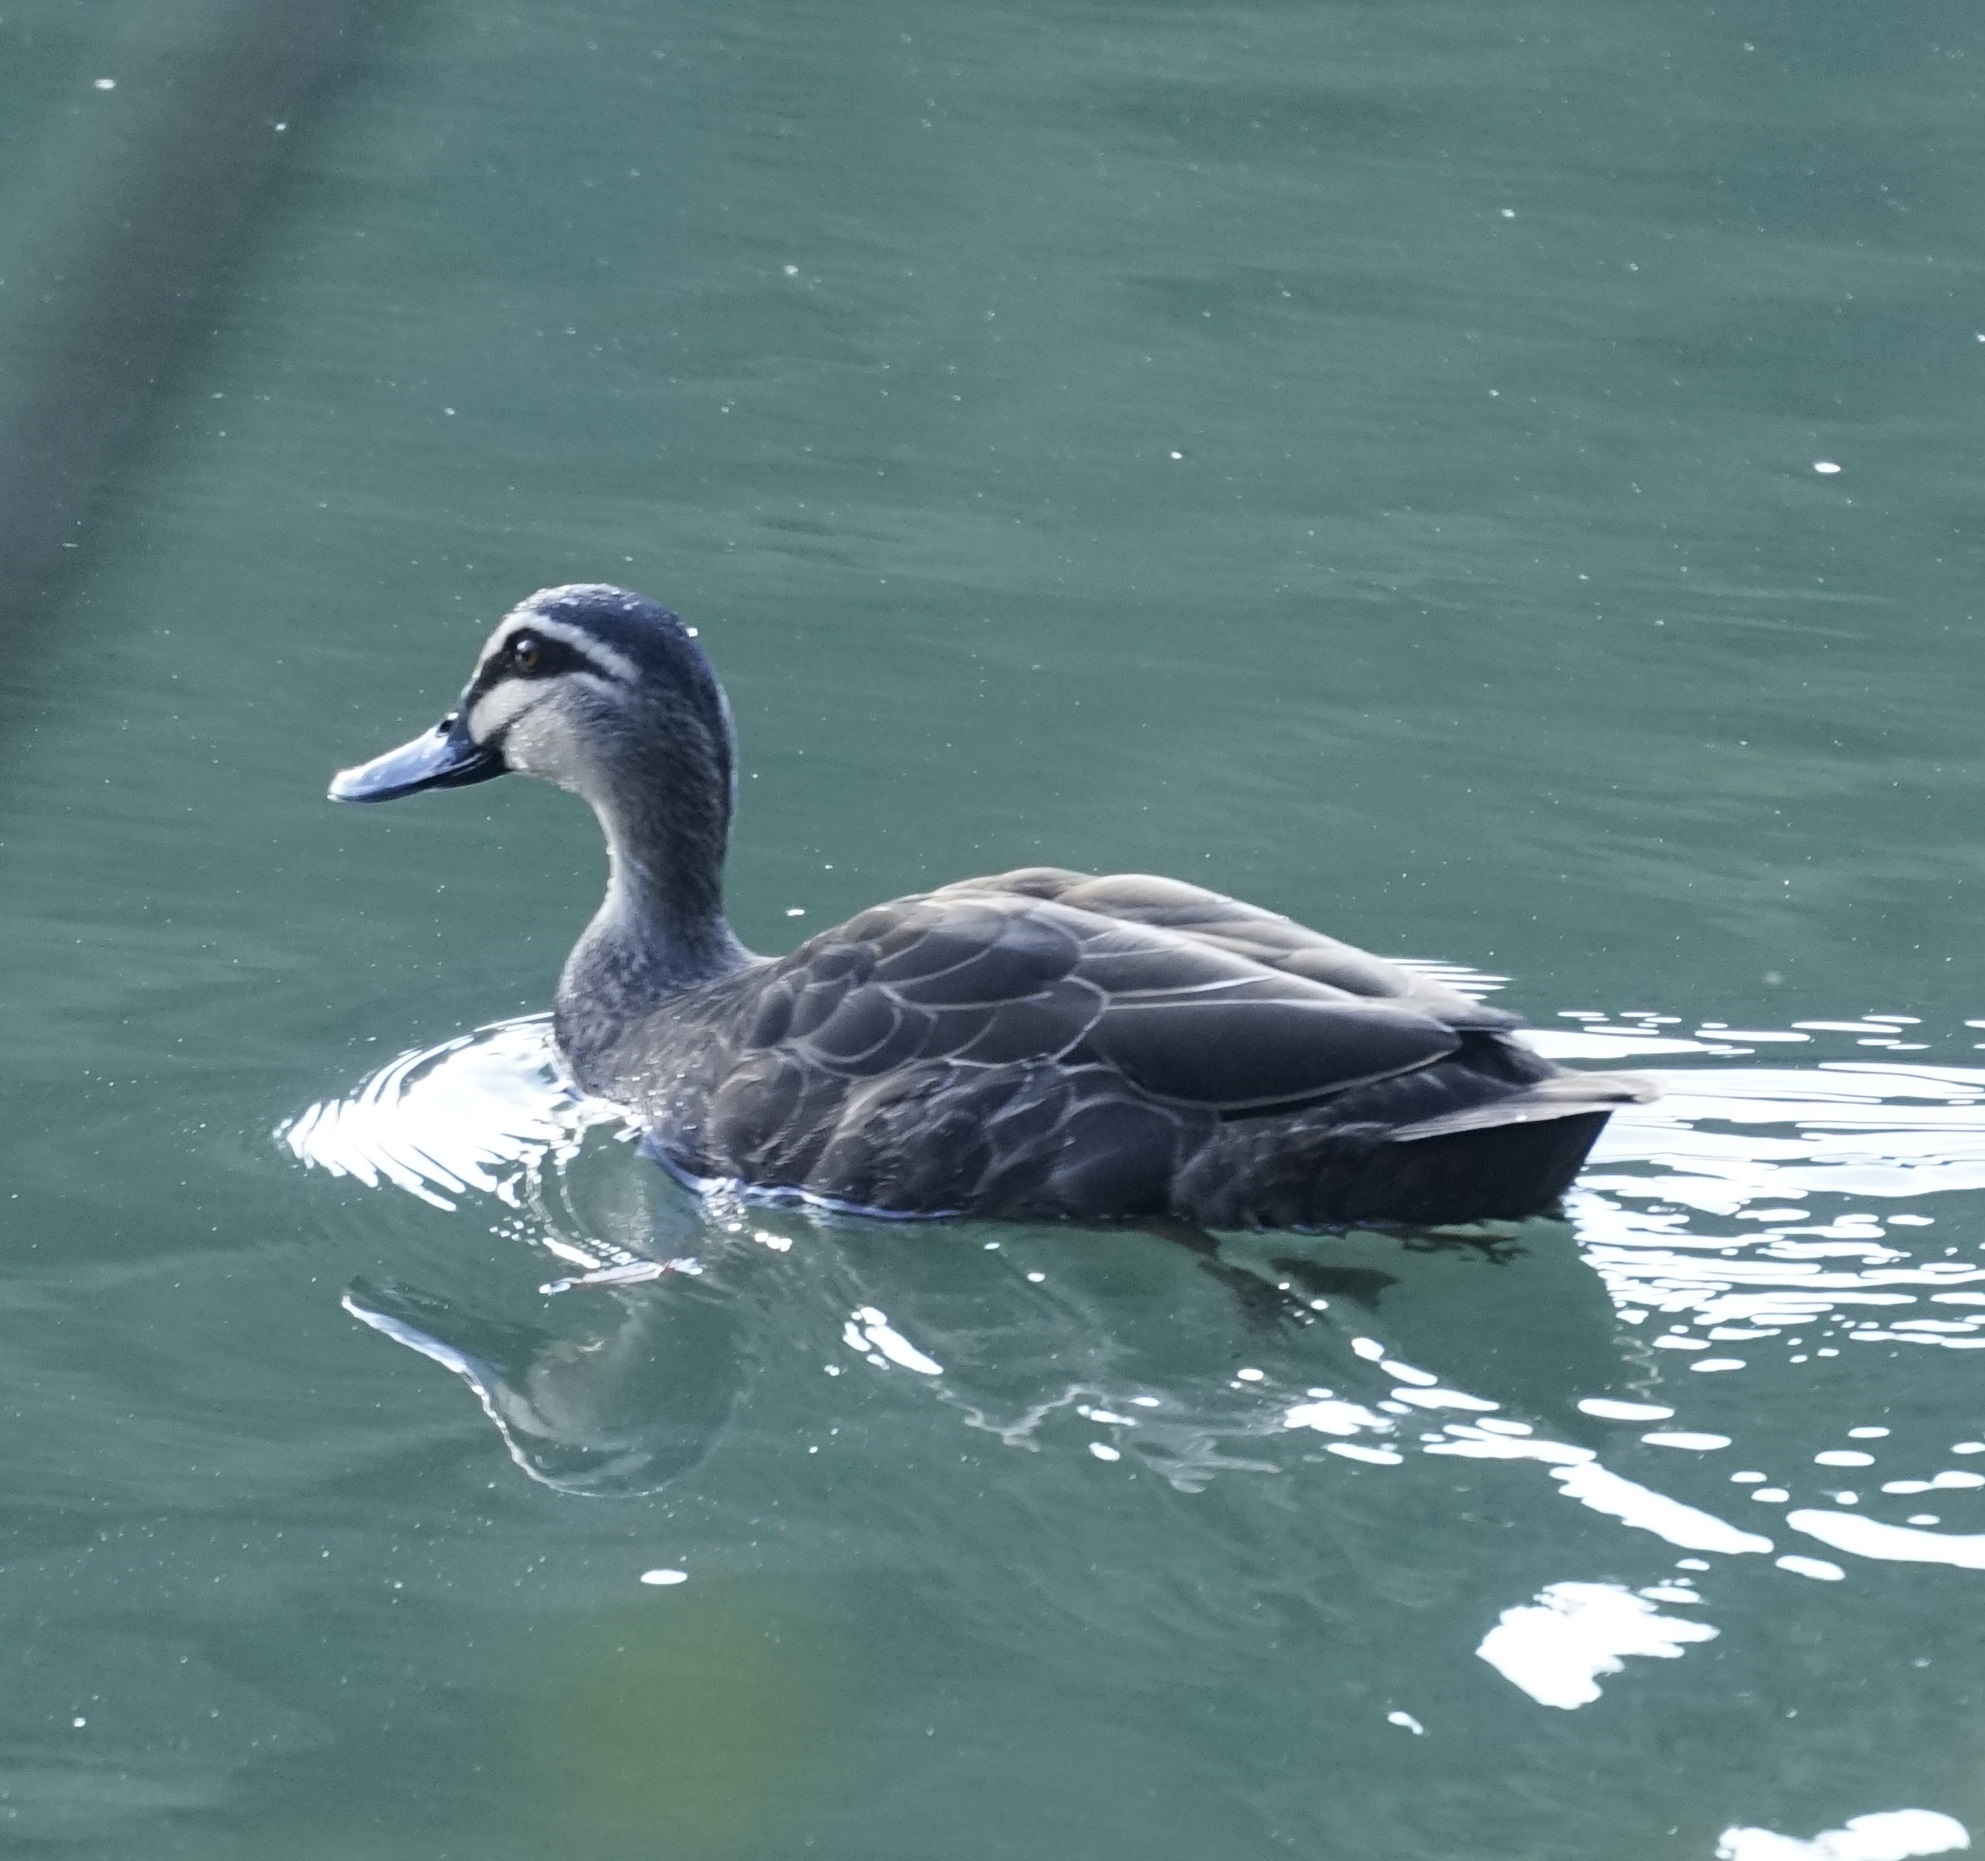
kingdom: Animalia
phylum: Chordata
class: Aves
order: Anseriformes
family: Anatidae
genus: Anas
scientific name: Anas superciliosa
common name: Pacific black duck
